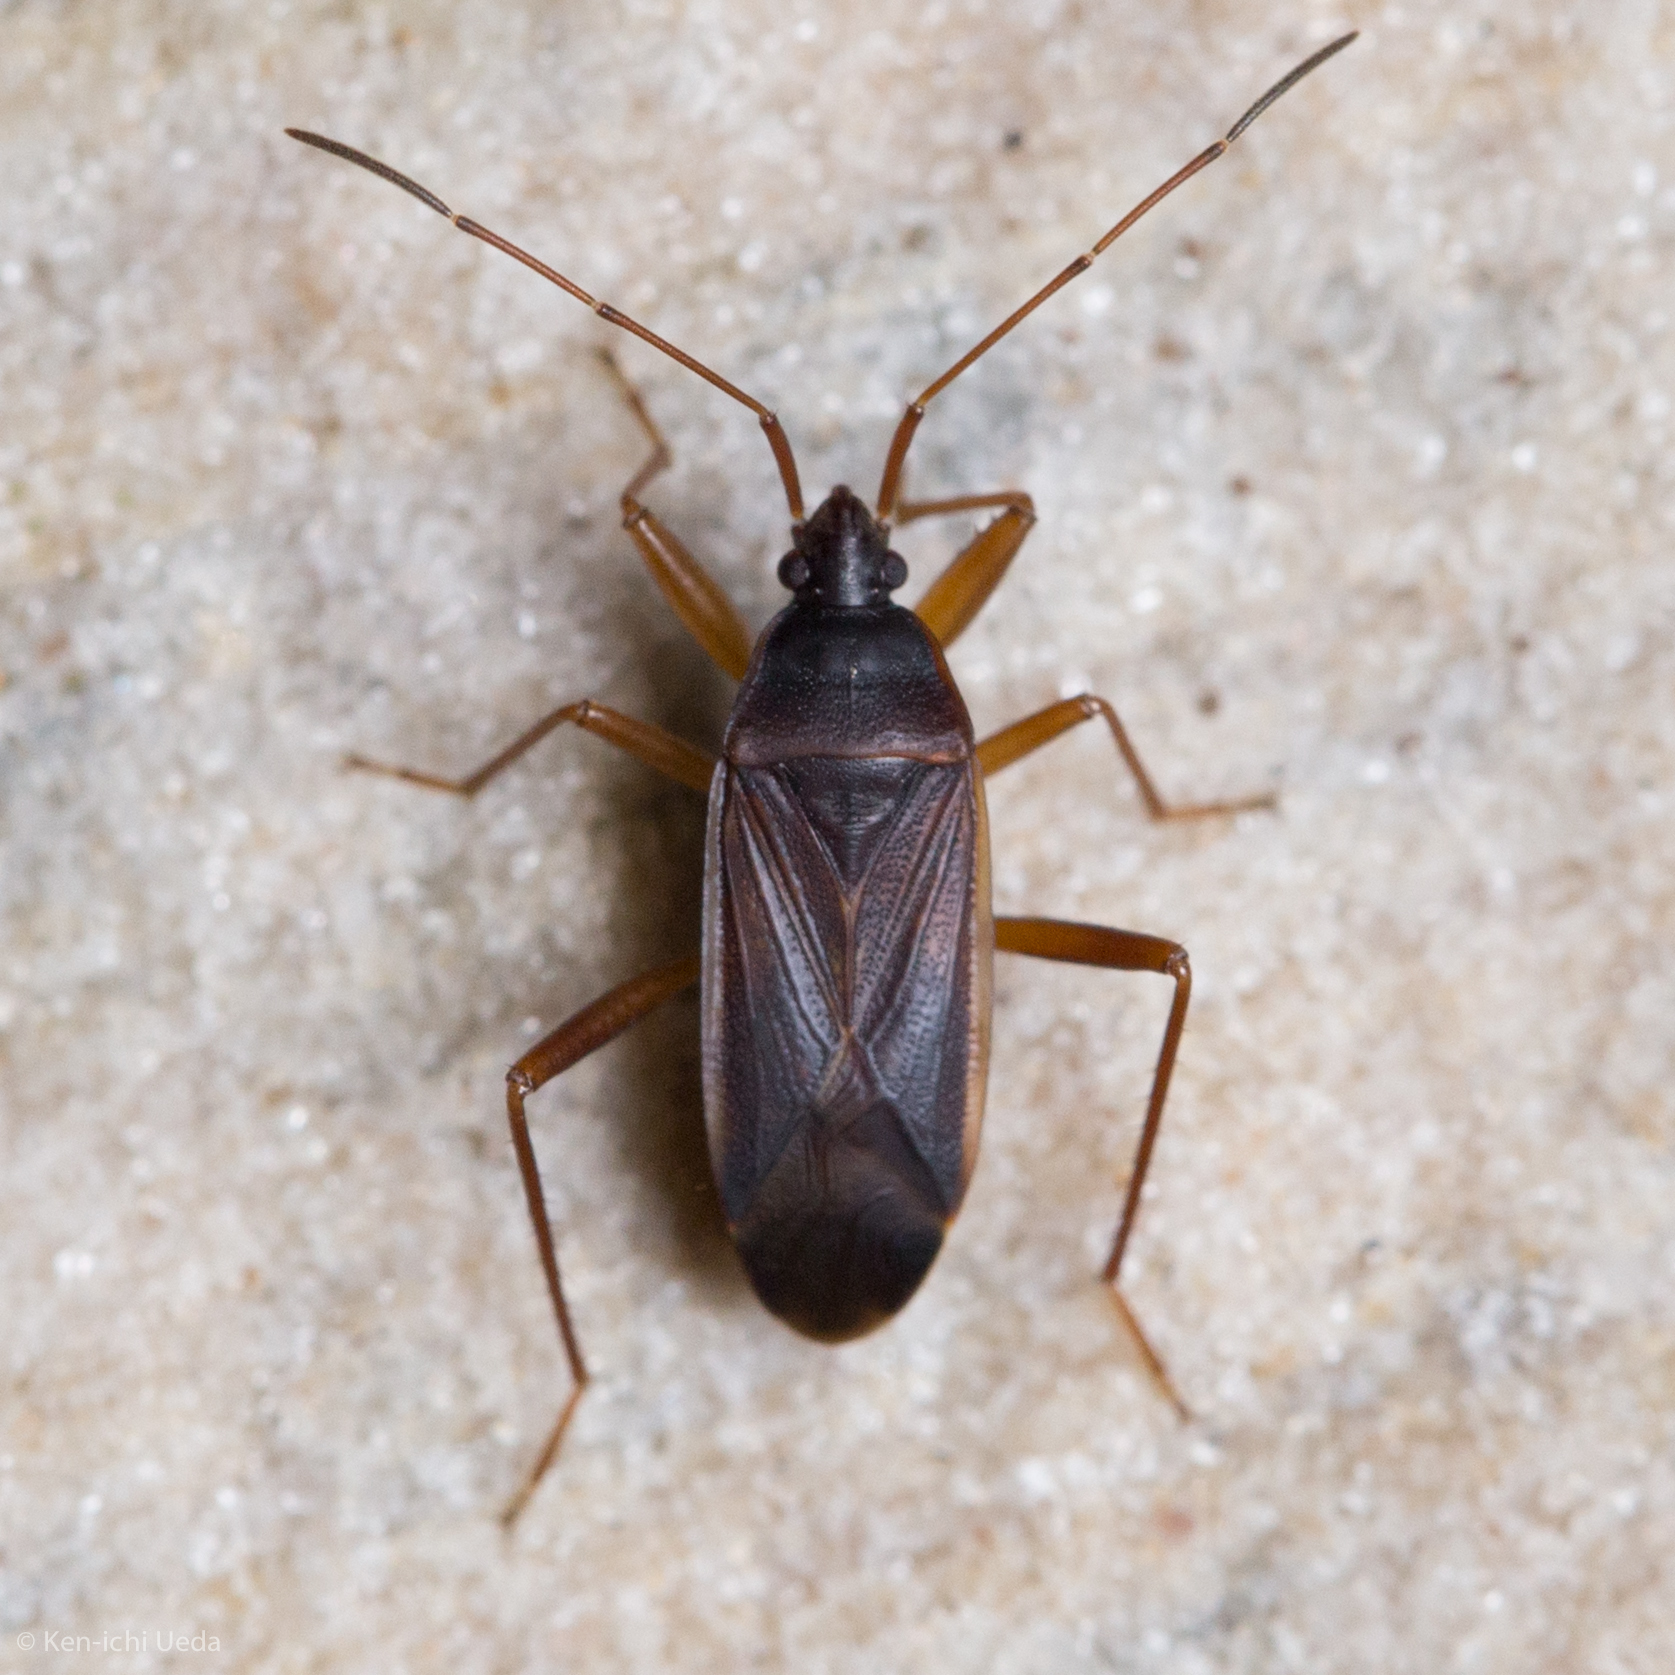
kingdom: Animalia
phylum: Arthropoda
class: Insecta
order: Hemiptera
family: Rhyparochromidae
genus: Balboa
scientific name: Balboa ampliata
